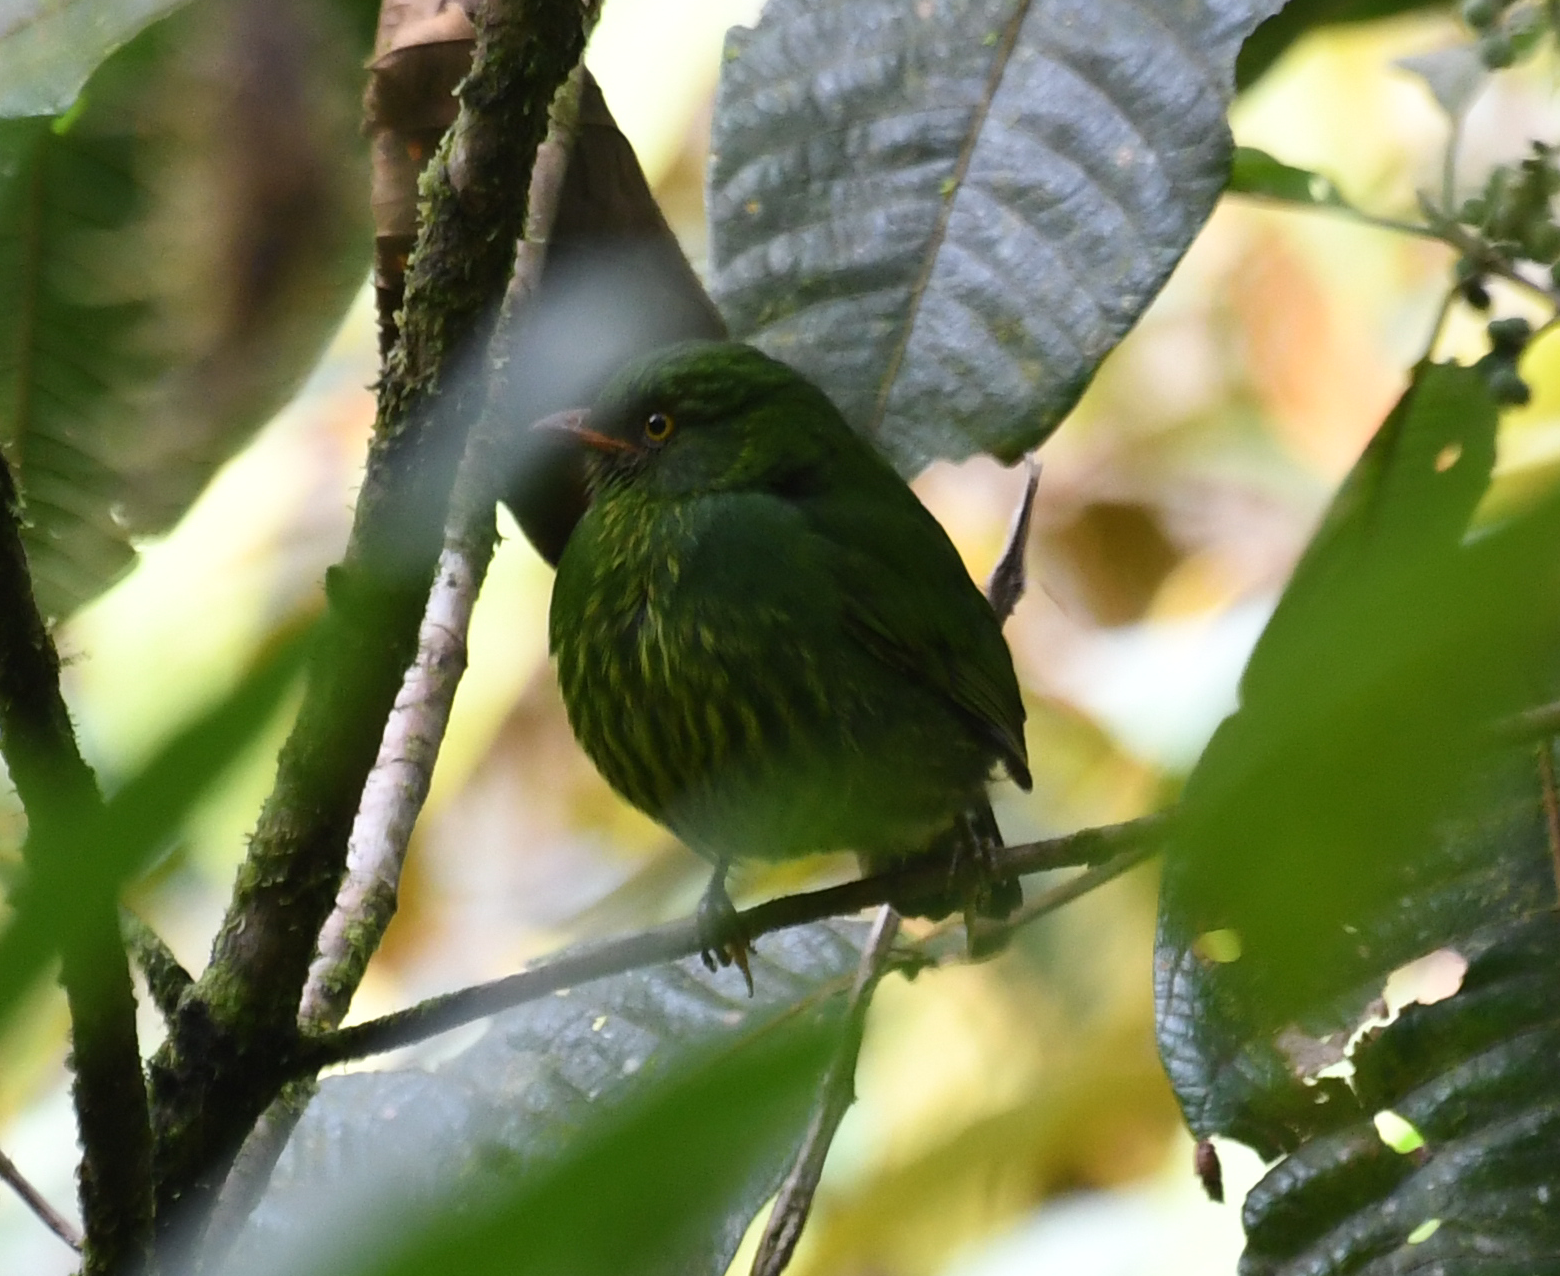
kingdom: Animalia
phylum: Chordata
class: Aves
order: Passeriformes
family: Cotingidae
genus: Pipreola
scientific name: Pipreola jucunda
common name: Orange-breasted fruiteater
